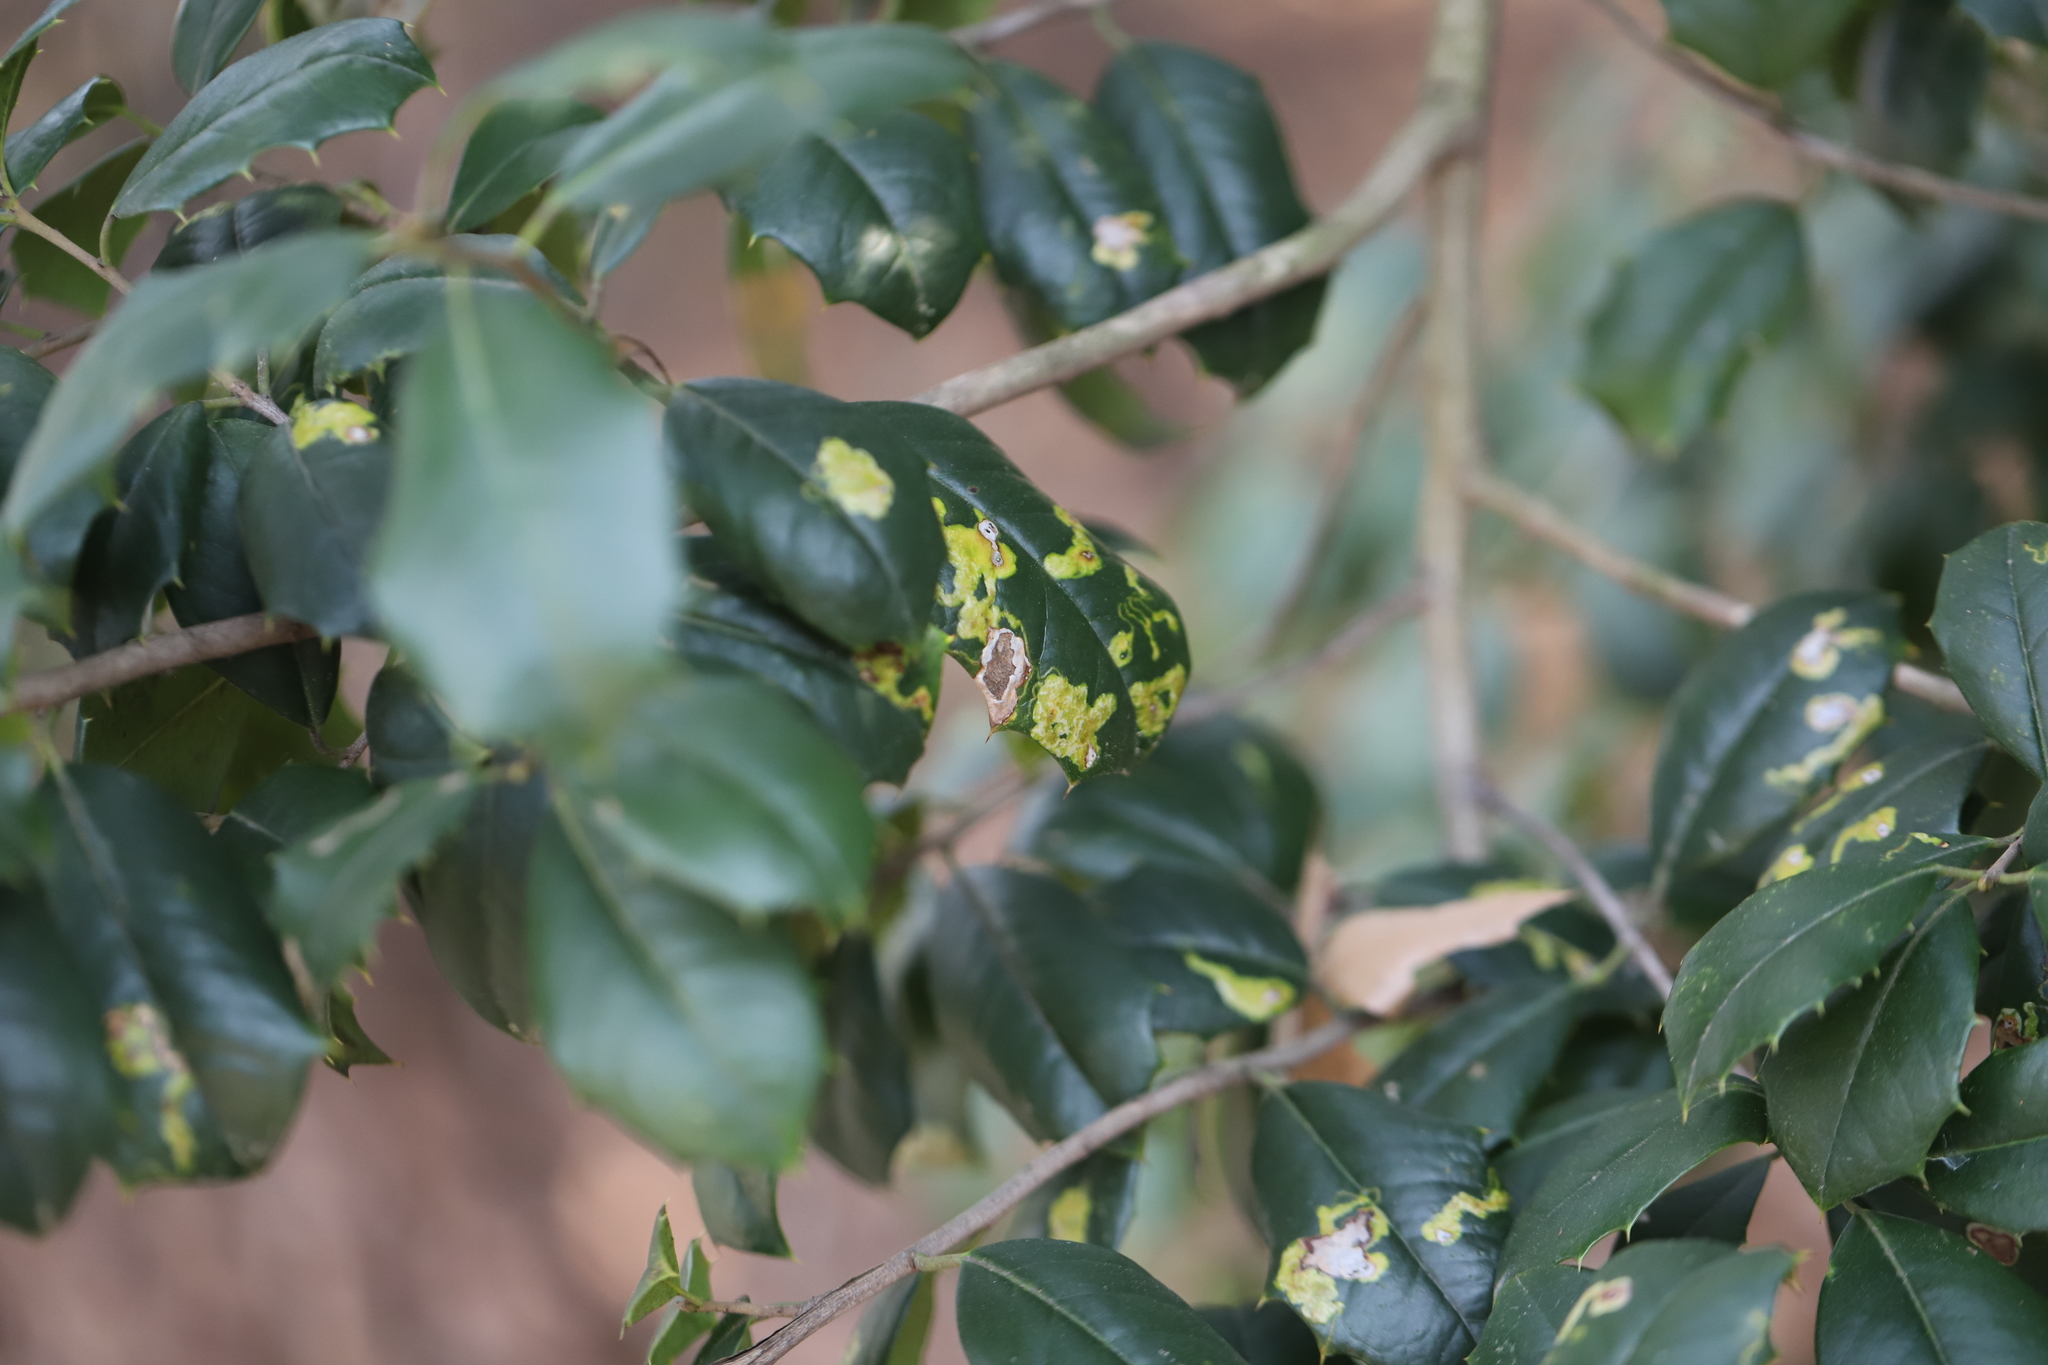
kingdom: Animalia
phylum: Arthropoda
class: Insecta
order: Diptera
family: Agromyzidae
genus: Phytomyza
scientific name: Phytomyza ilicicola
